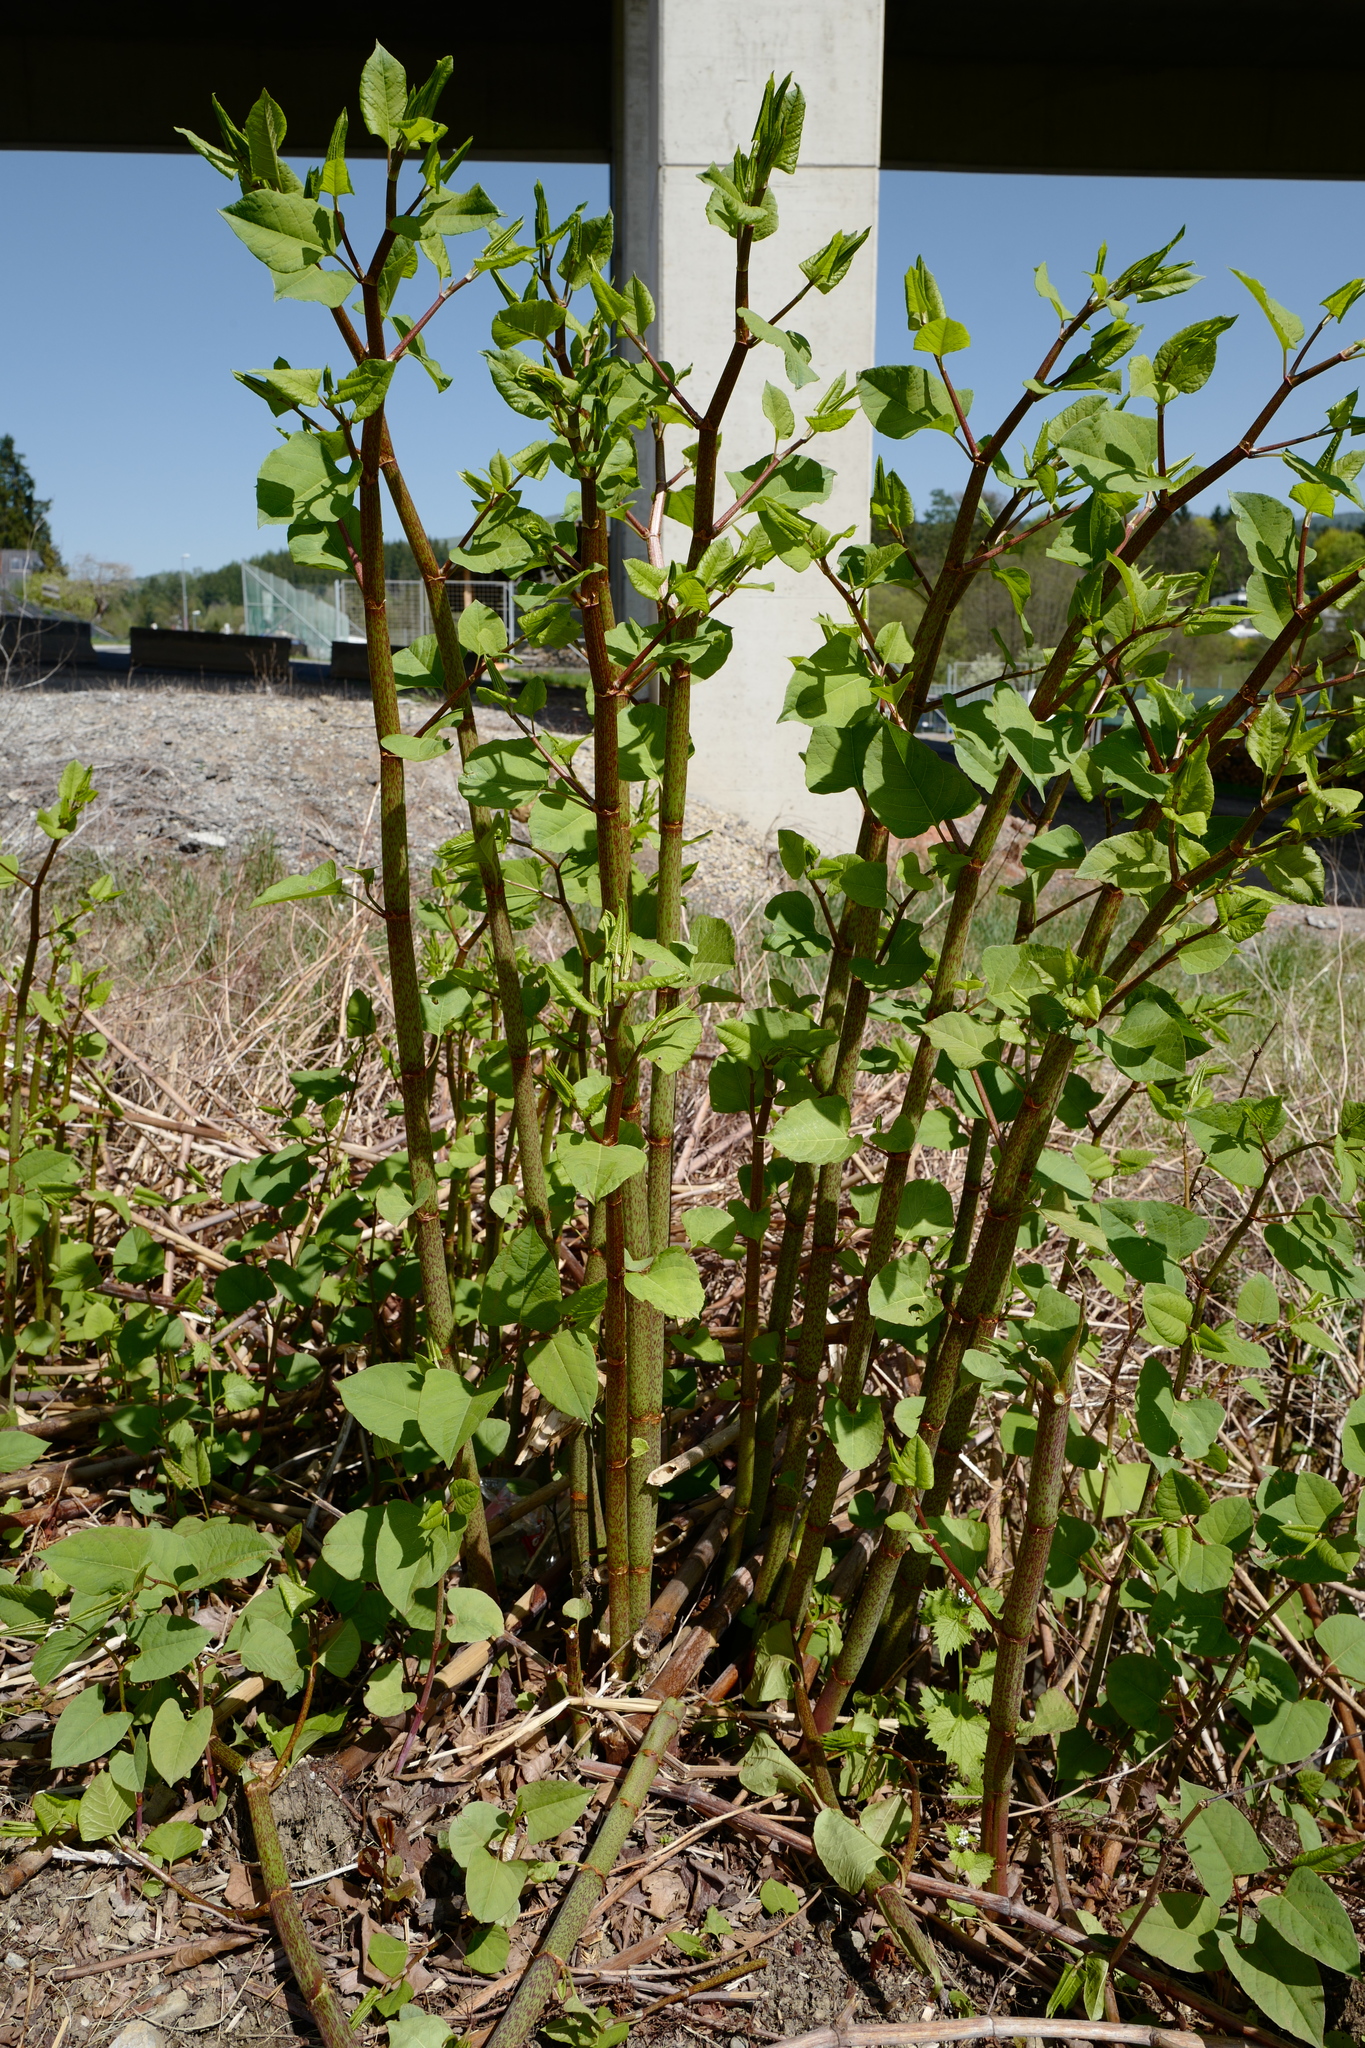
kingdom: Plantae
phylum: Tracheophyta
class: Magnoliopsida
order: Caryophyllales
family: Polygonaceae
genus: Reynoutria
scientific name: Reynoutria bohemica
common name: Bohemian knotweed
